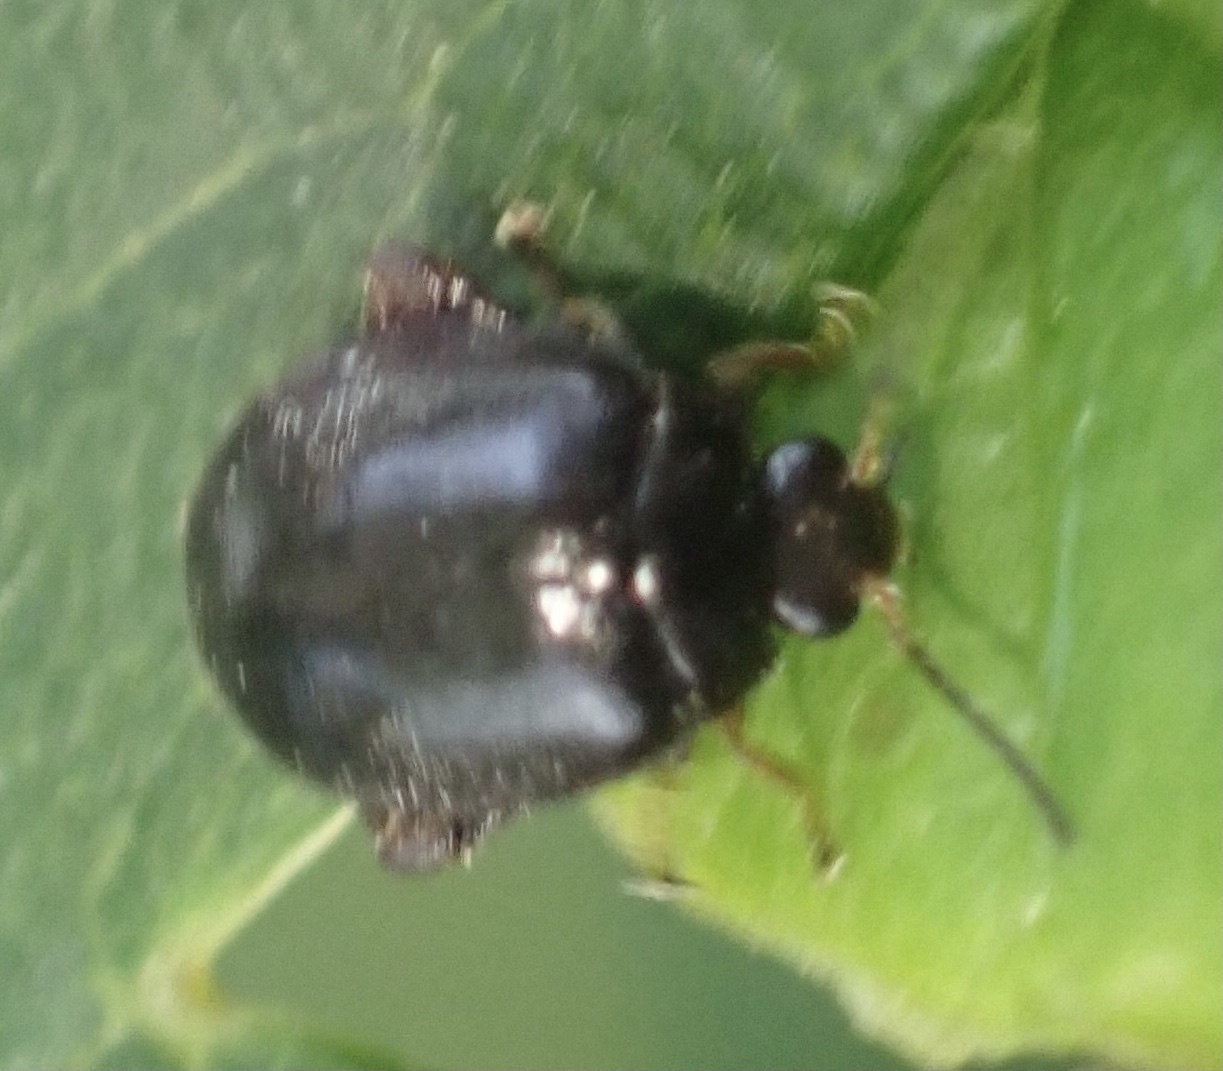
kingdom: Animalia
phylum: Arthropoda
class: Insecta
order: Coleoptera
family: Scirtidae
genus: Scirtes
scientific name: Scirtes hemisphaericus
